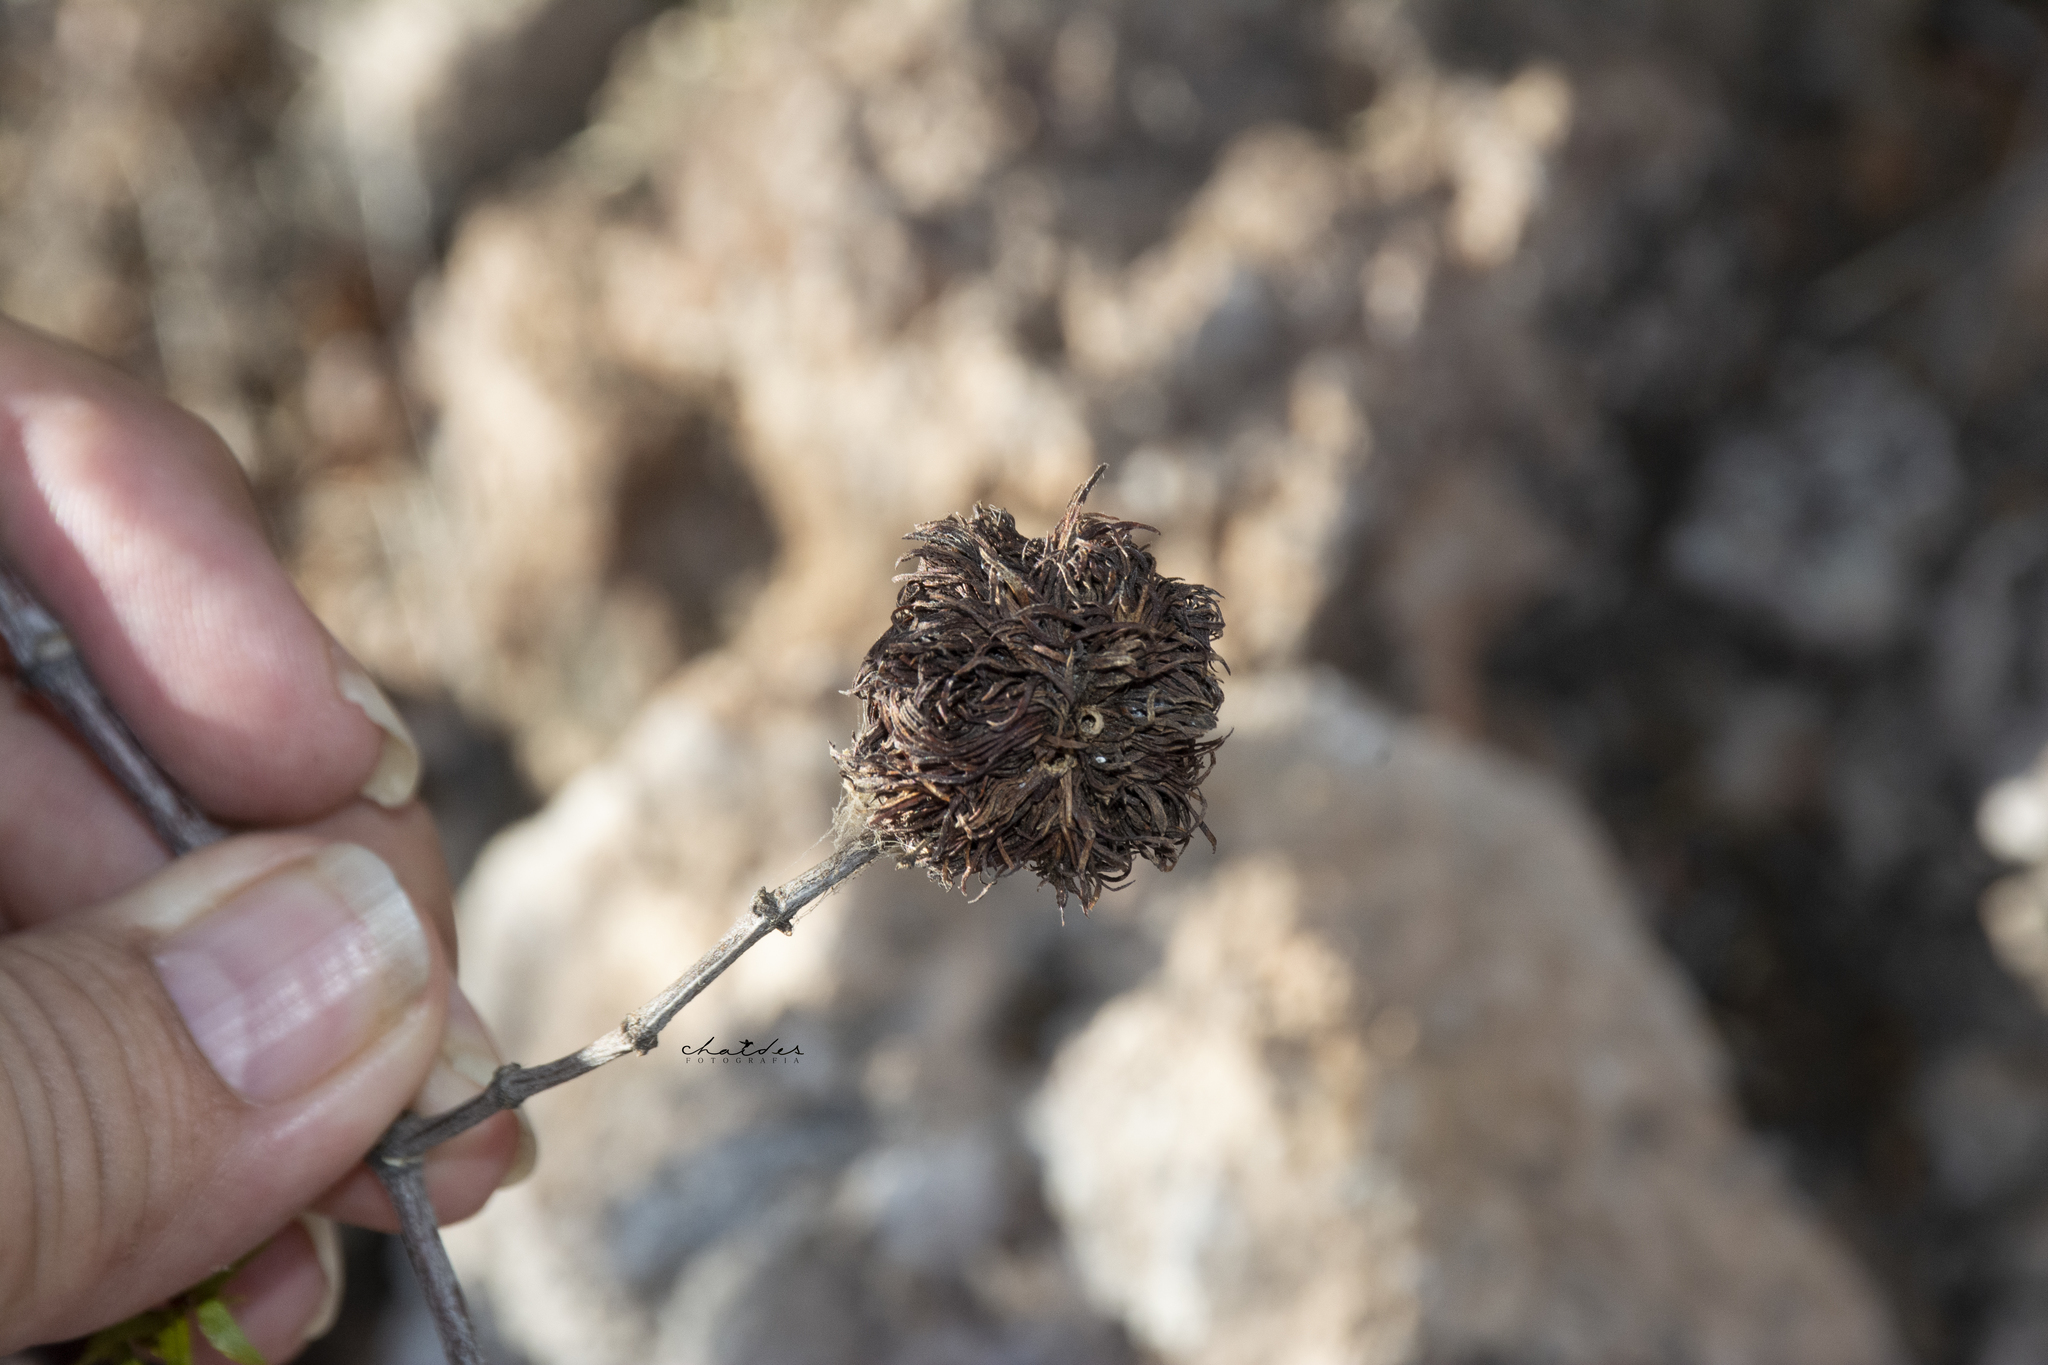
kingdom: Animalia
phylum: Arthropoda
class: Insecta
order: Diptera
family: Cecidomyiidae
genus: Asphondylia
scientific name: Asphondylia auripila
